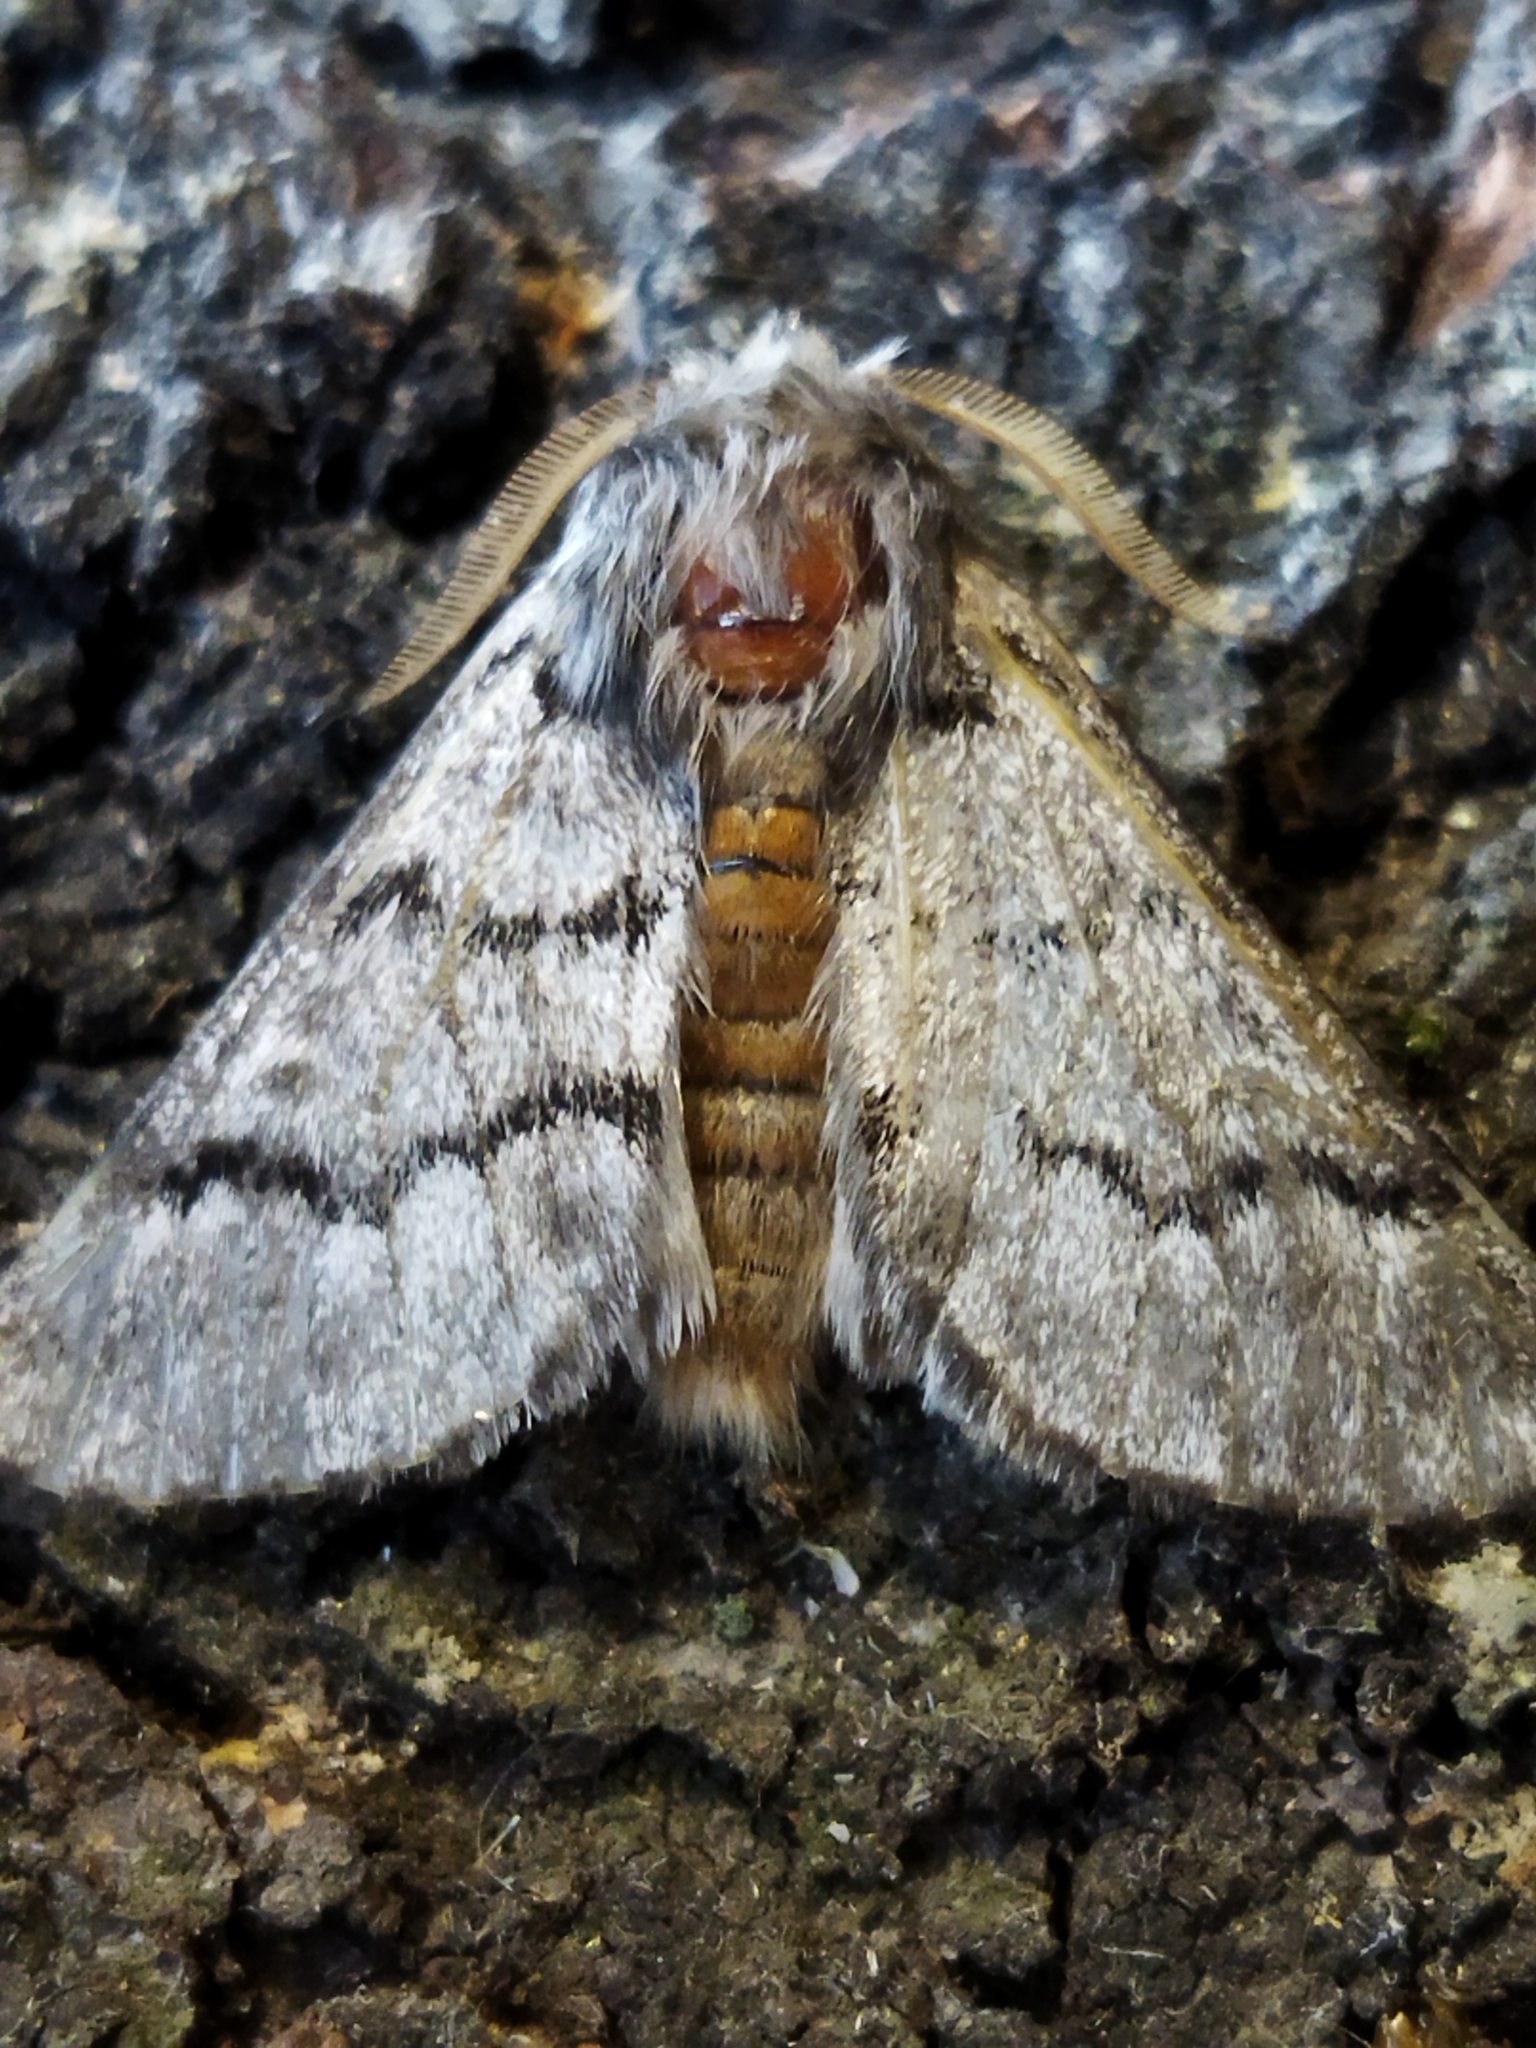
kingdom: Animalia
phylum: Arthropoda
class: Insecta
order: Lepidoptera
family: Notodontidae
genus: Thaumetopoea
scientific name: Thaumetopoea pityocampa
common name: Pine processionary
